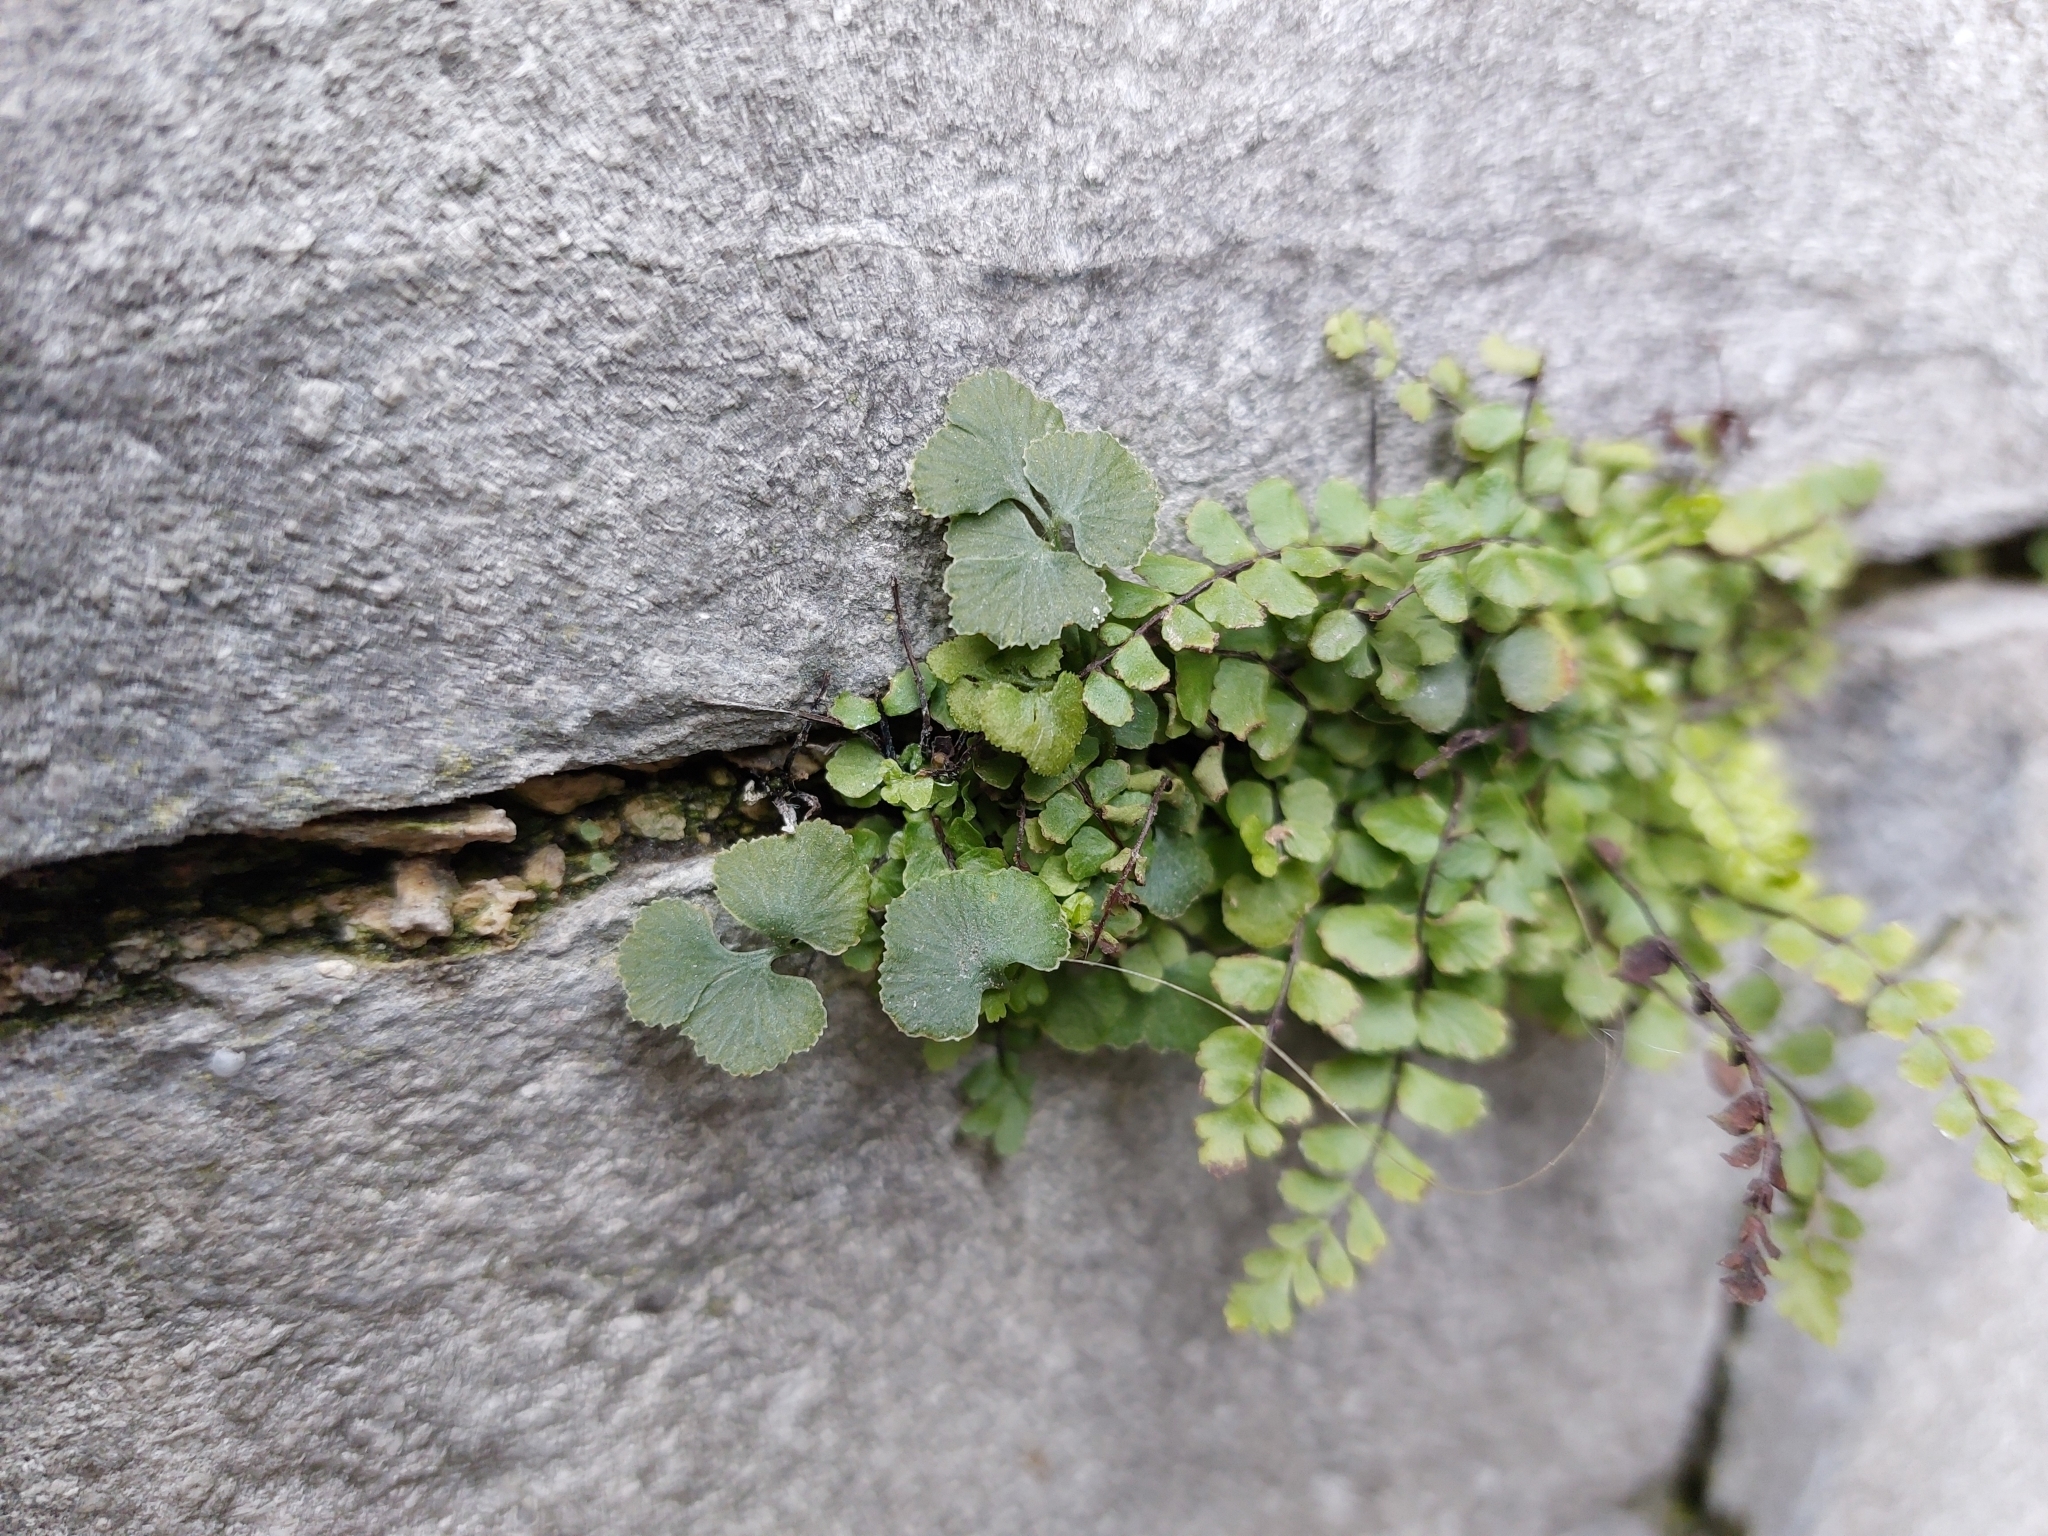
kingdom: Plantae
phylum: Tracheophyta
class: Polypodiopsida
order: Polypodiales
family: Aspleniaceae
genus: Asplenium
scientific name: Asplenium trichomanes
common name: Maidenhair spleenwort
